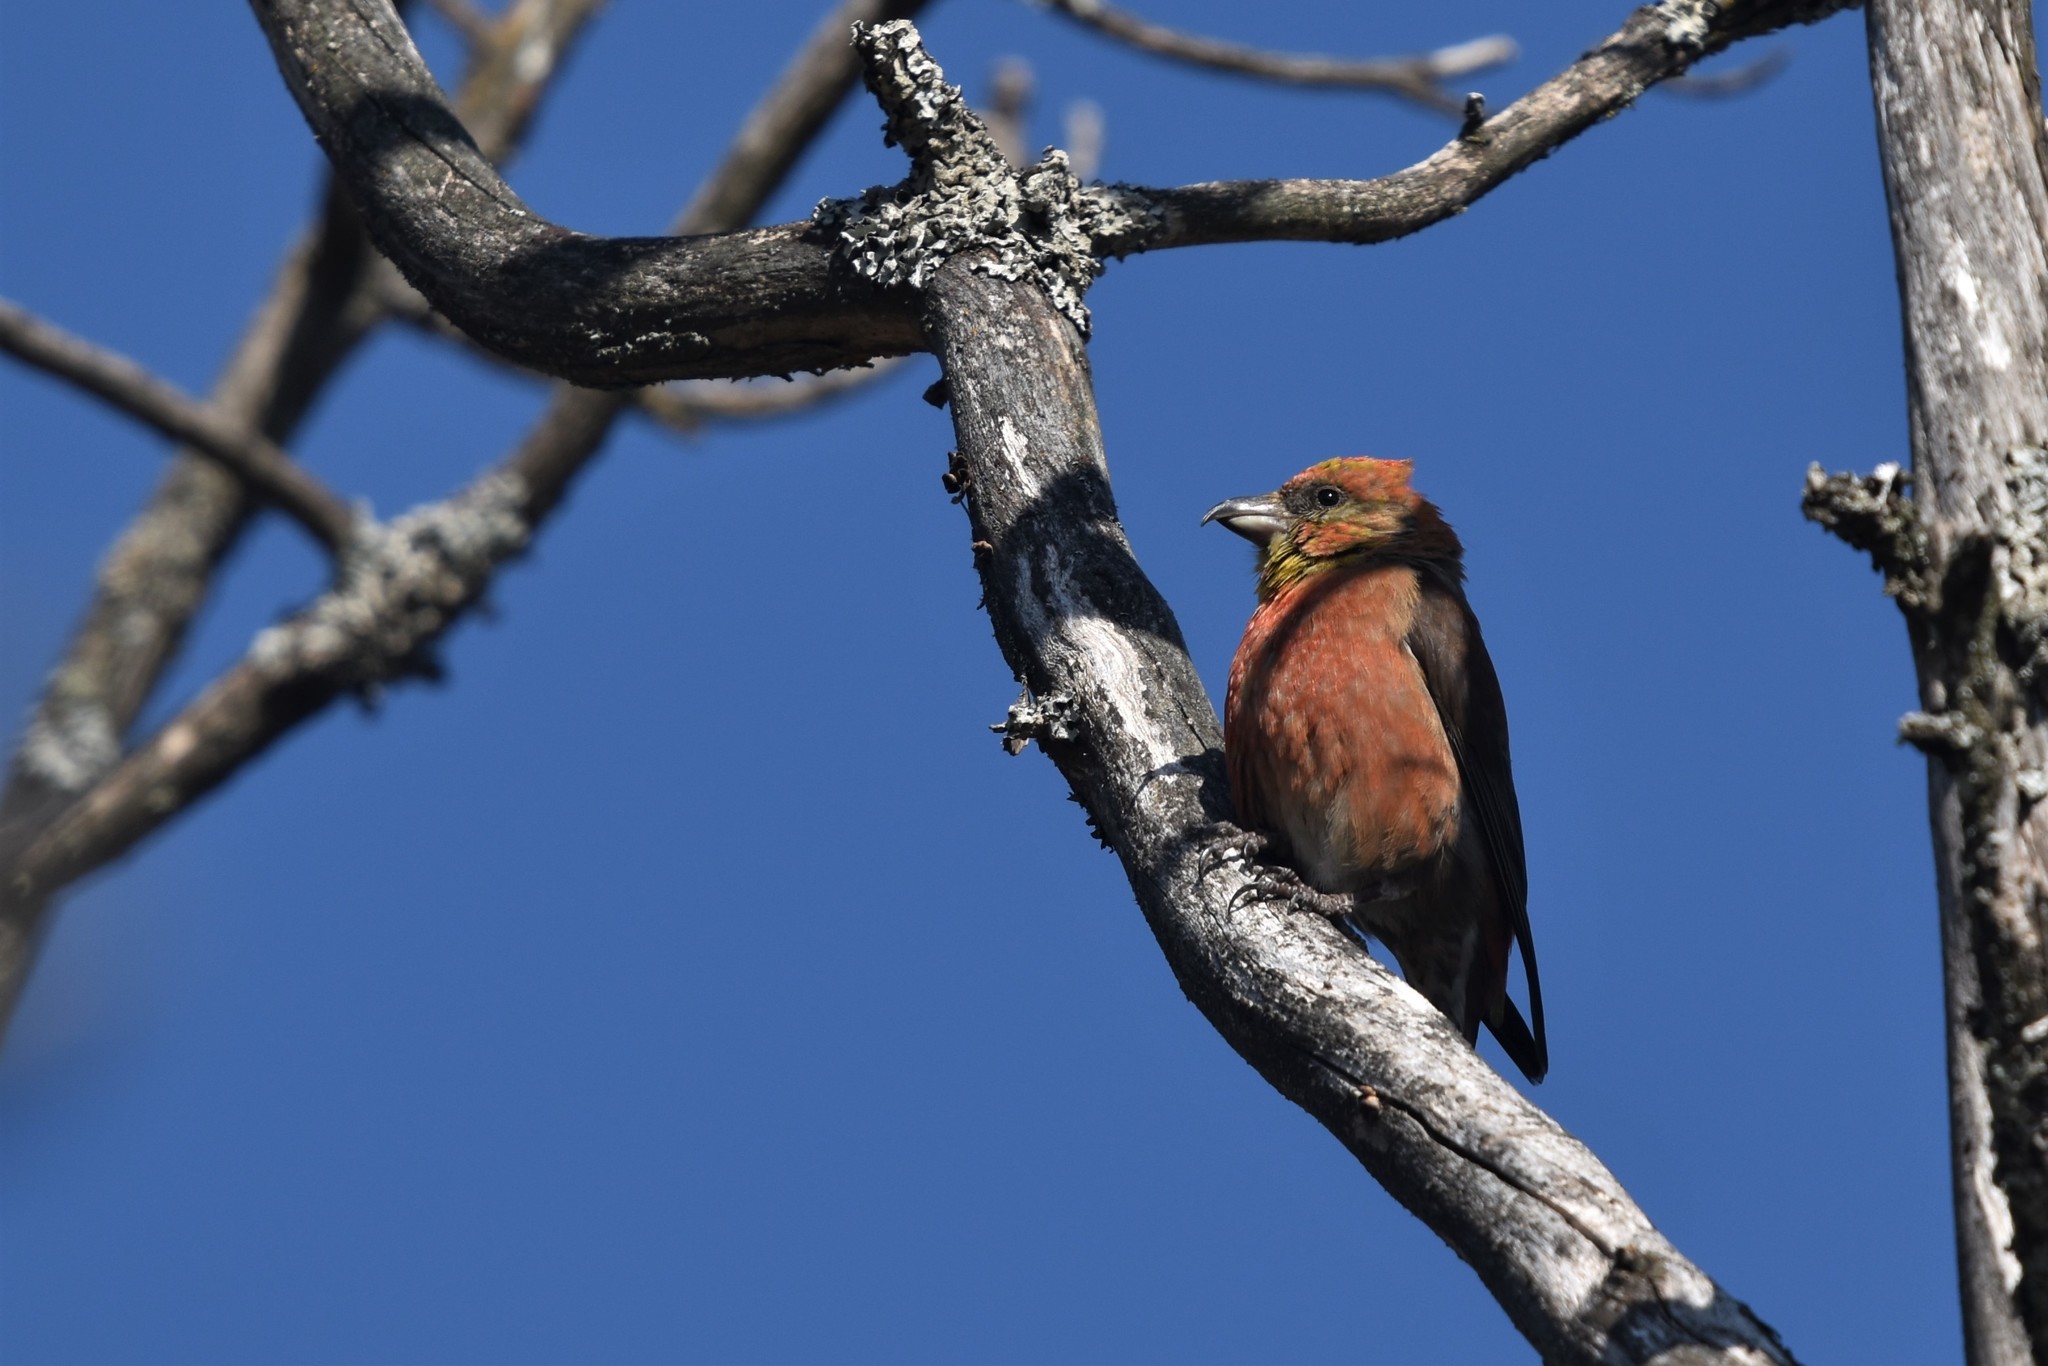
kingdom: Animalia
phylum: Chordata
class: Aves
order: Passeriformes
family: Fringillidae
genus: Loxia
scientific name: Loxia curvirostra
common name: Red crossbill
